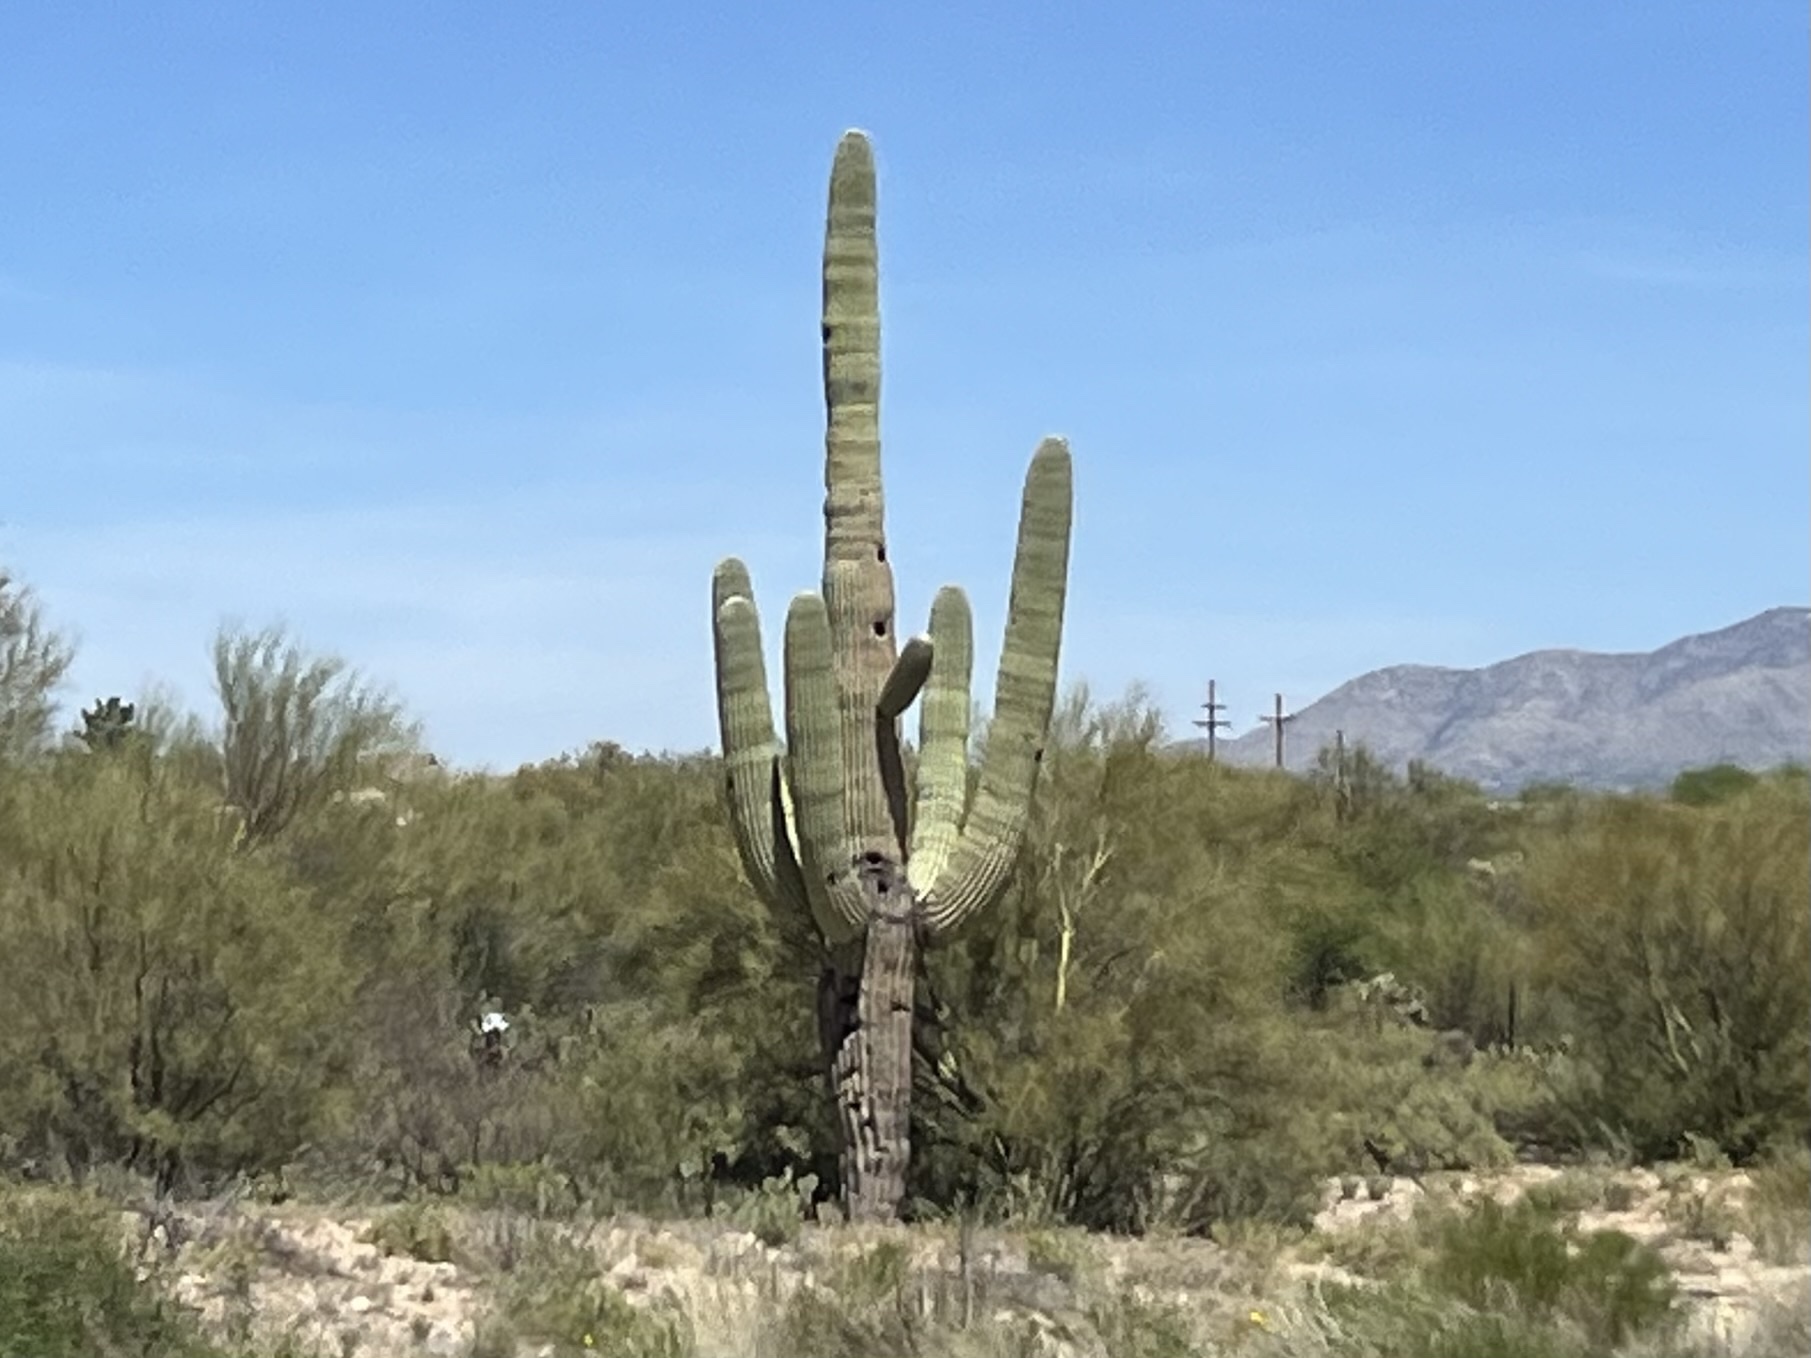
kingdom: Plantae
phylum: Tracheophyta
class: Magnoliopsida
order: Caryophyllales
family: Cactaceae
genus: Carnegiea
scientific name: Carnegiea gigantea
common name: Saguaro
